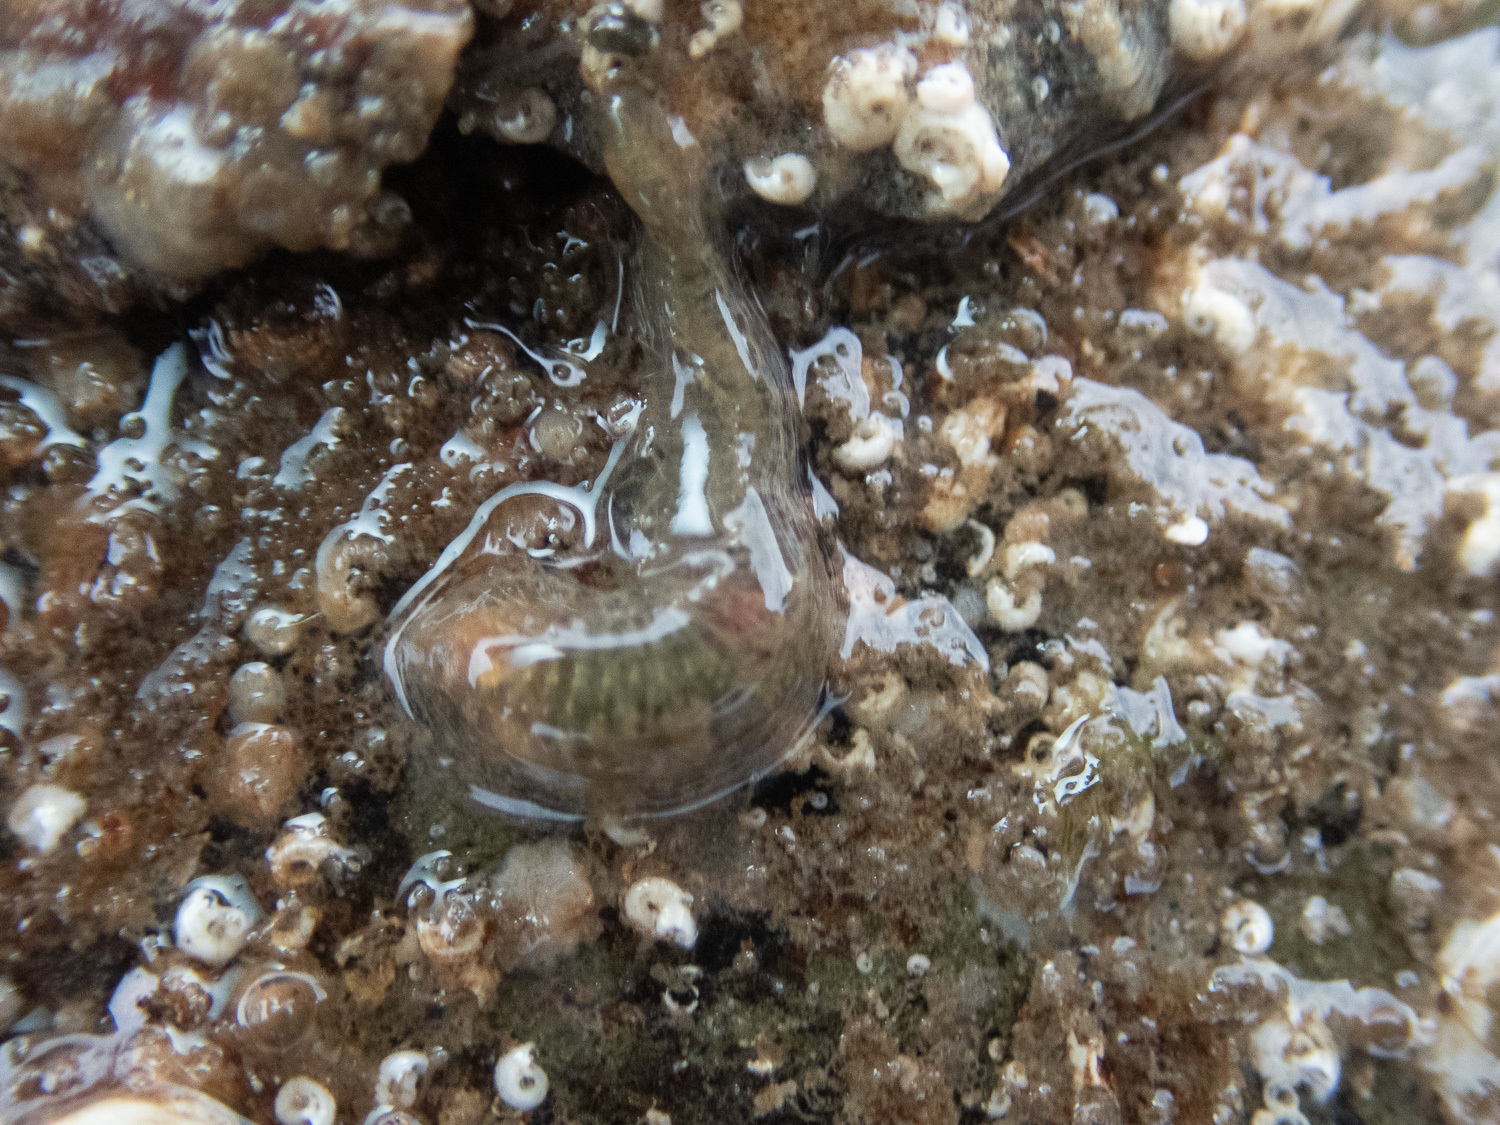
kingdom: Animalia
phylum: Annelida
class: Polychaeta
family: Flabelligeridae
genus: Flabelligera
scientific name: Flabelligera affinis
